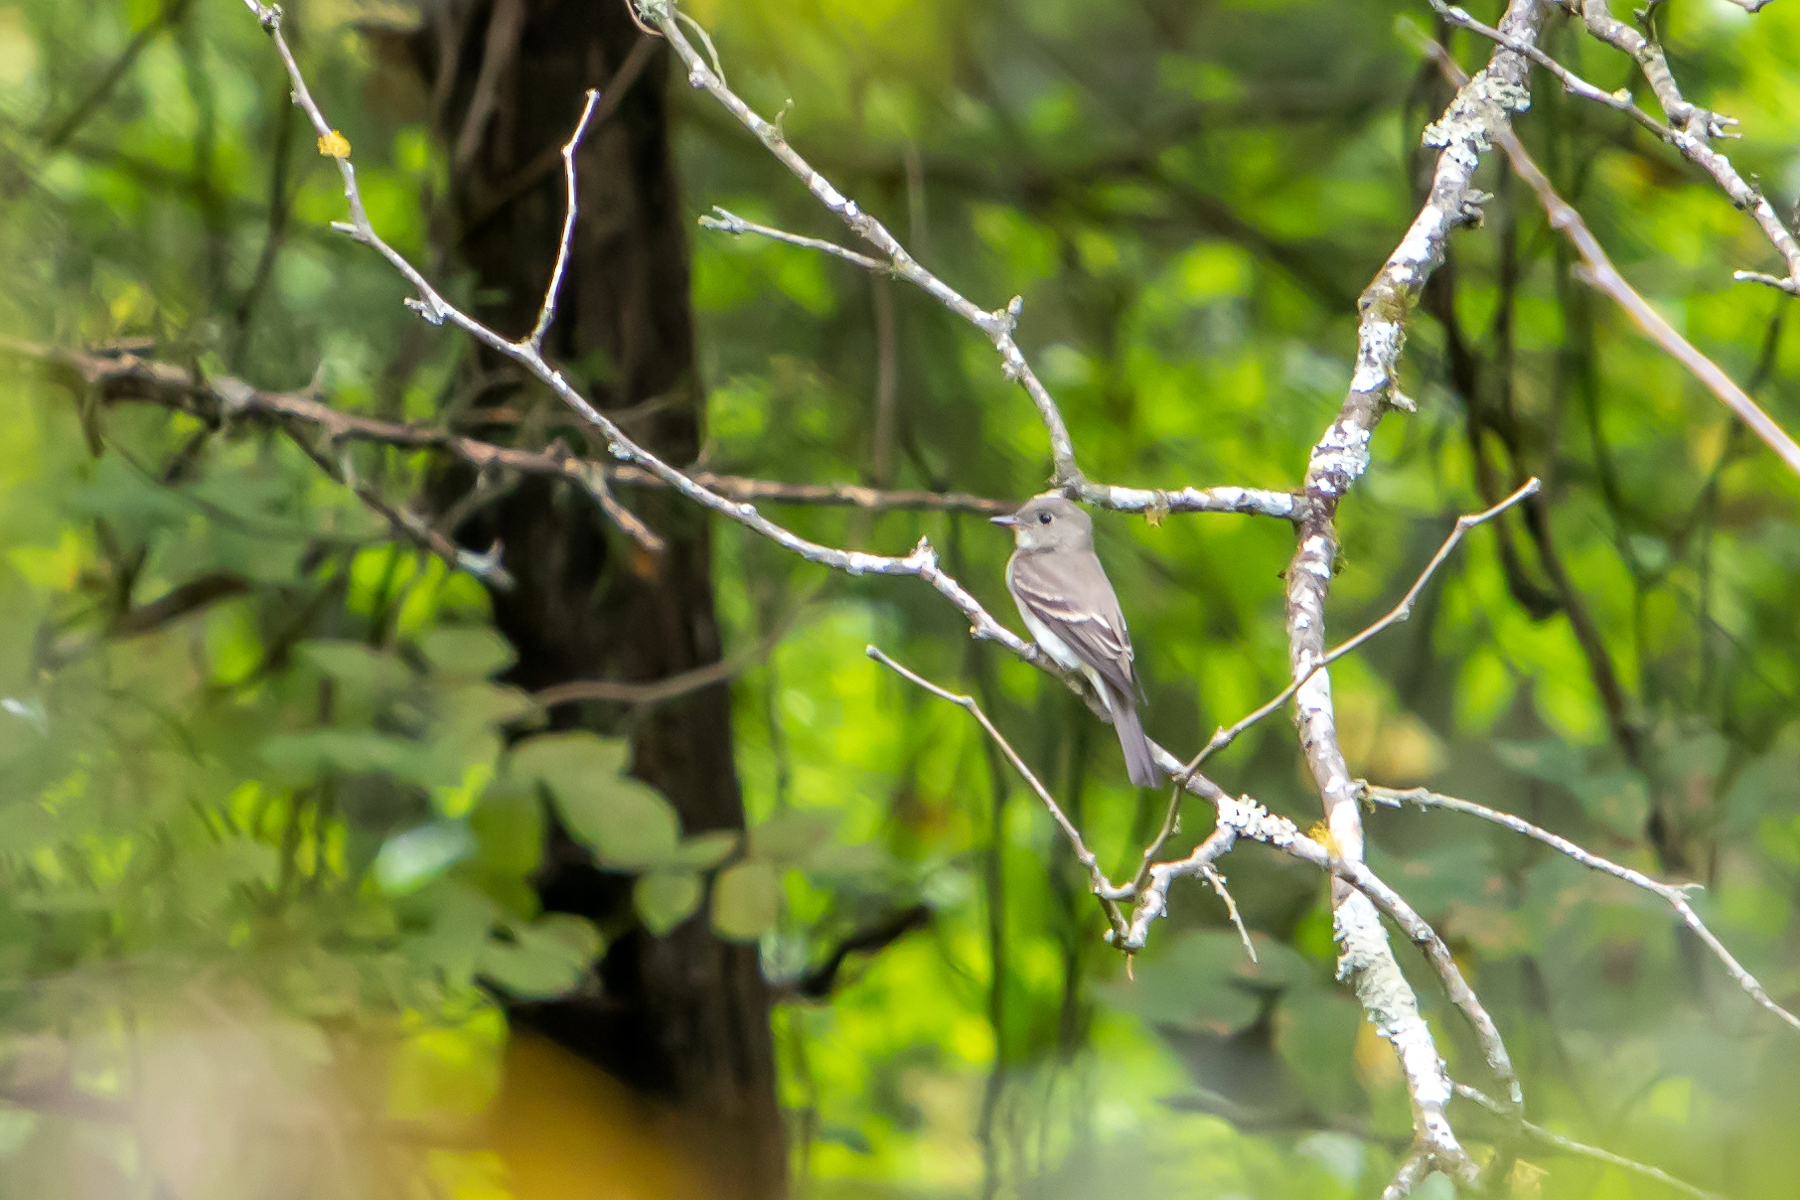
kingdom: Animalia
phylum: Chordata
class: Aves
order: Passeriformes
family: Tyrannidae
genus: Contopus
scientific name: Contopus virens
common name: Eastern wood-pewee
